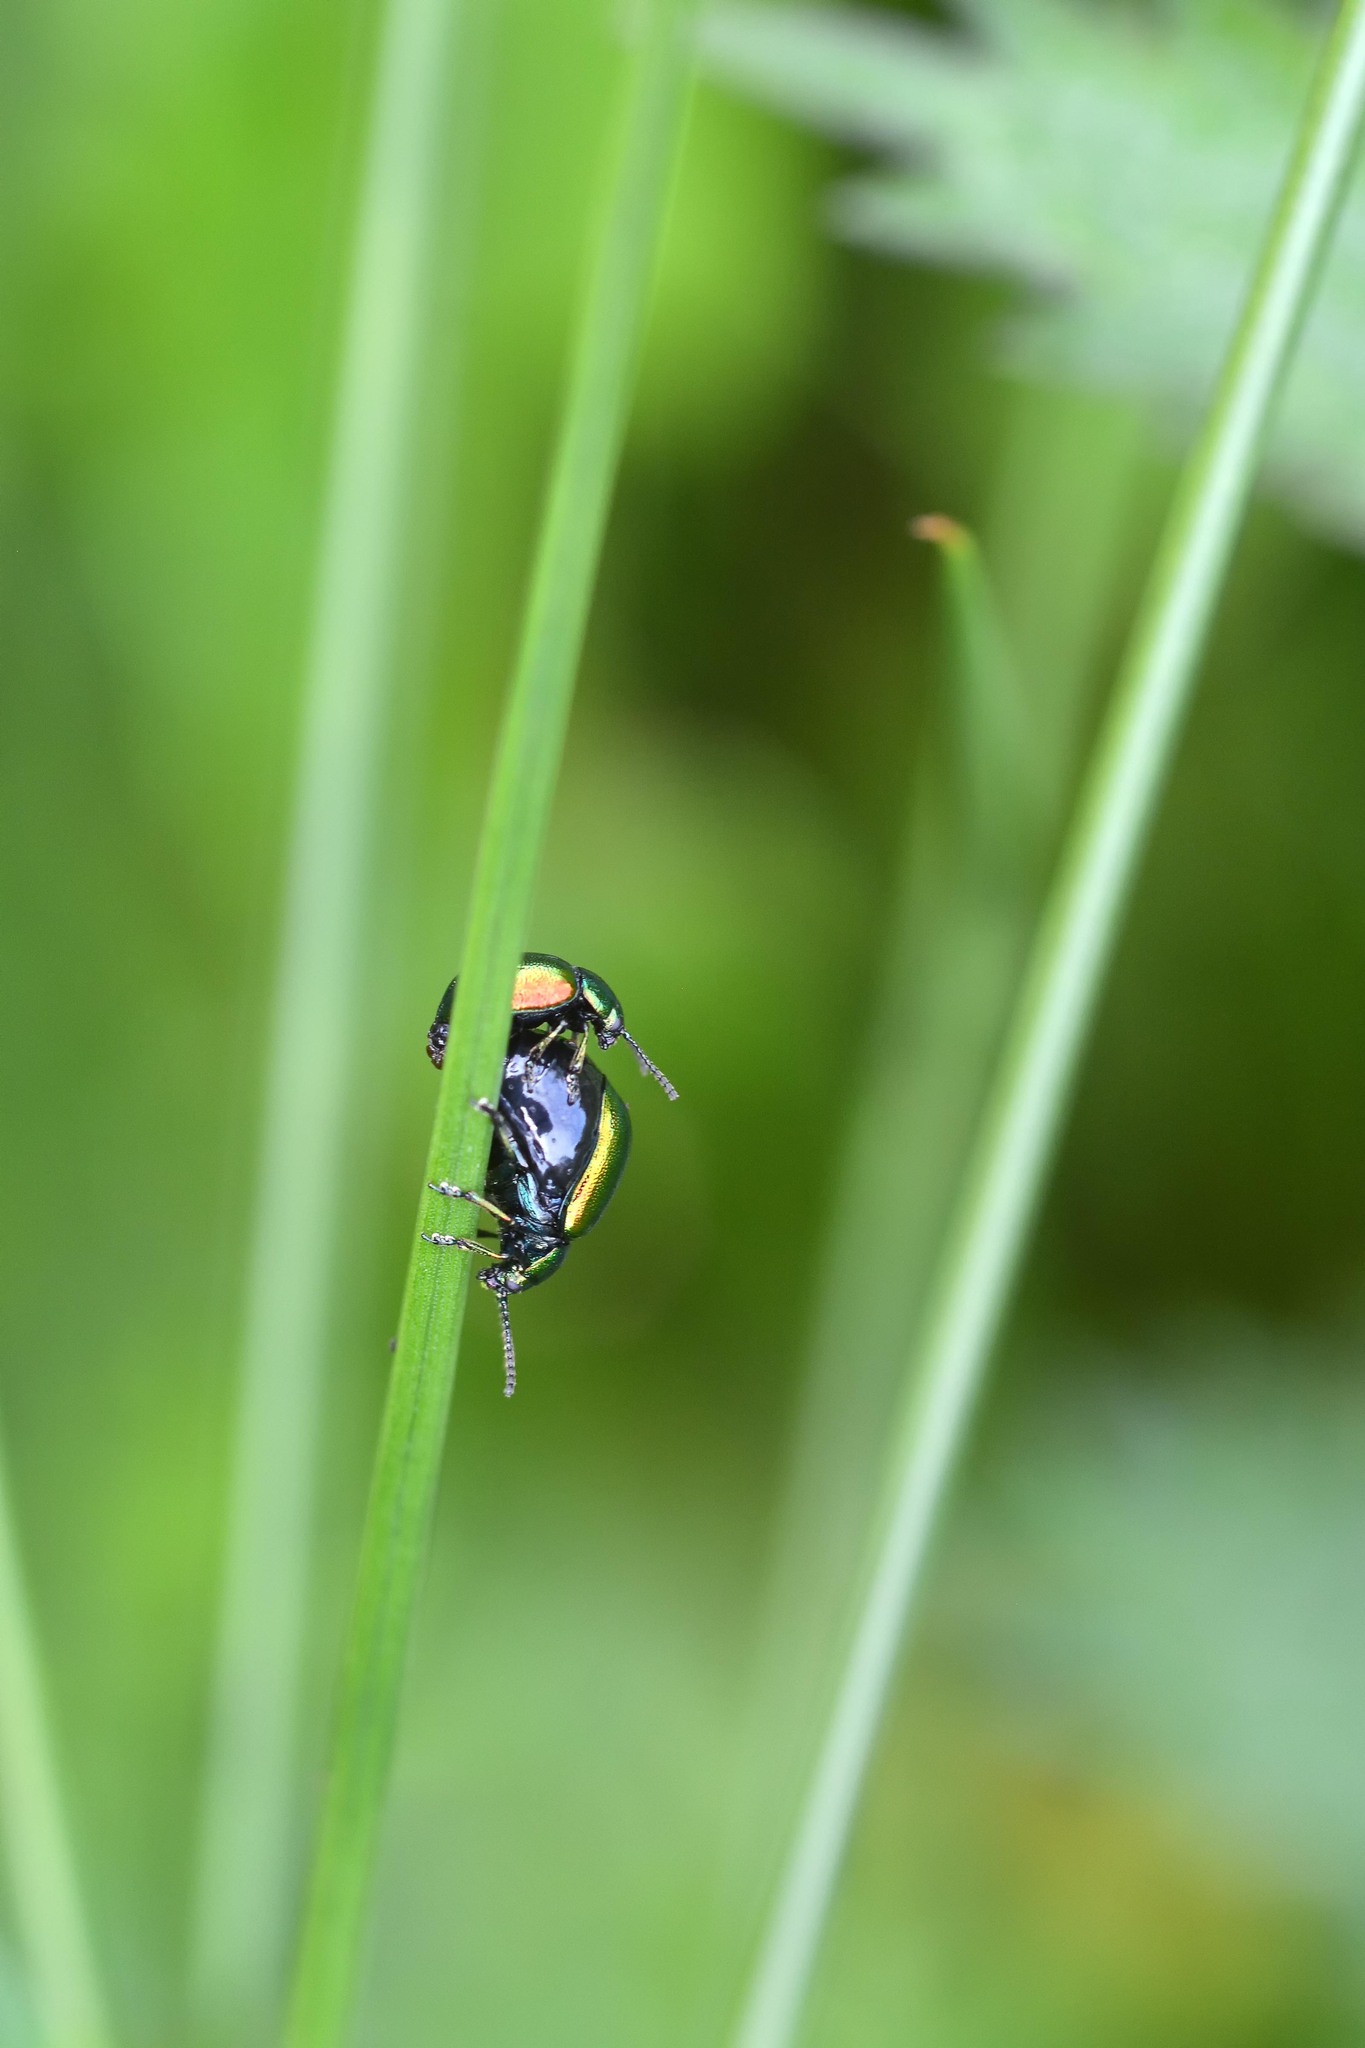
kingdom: Animalia
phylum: Arthropoda
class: Insecta
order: Coleoptera
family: Chrysomelidae
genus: Gastrophysa
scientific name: Gastrophysa viridula
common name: Green dock beetle
